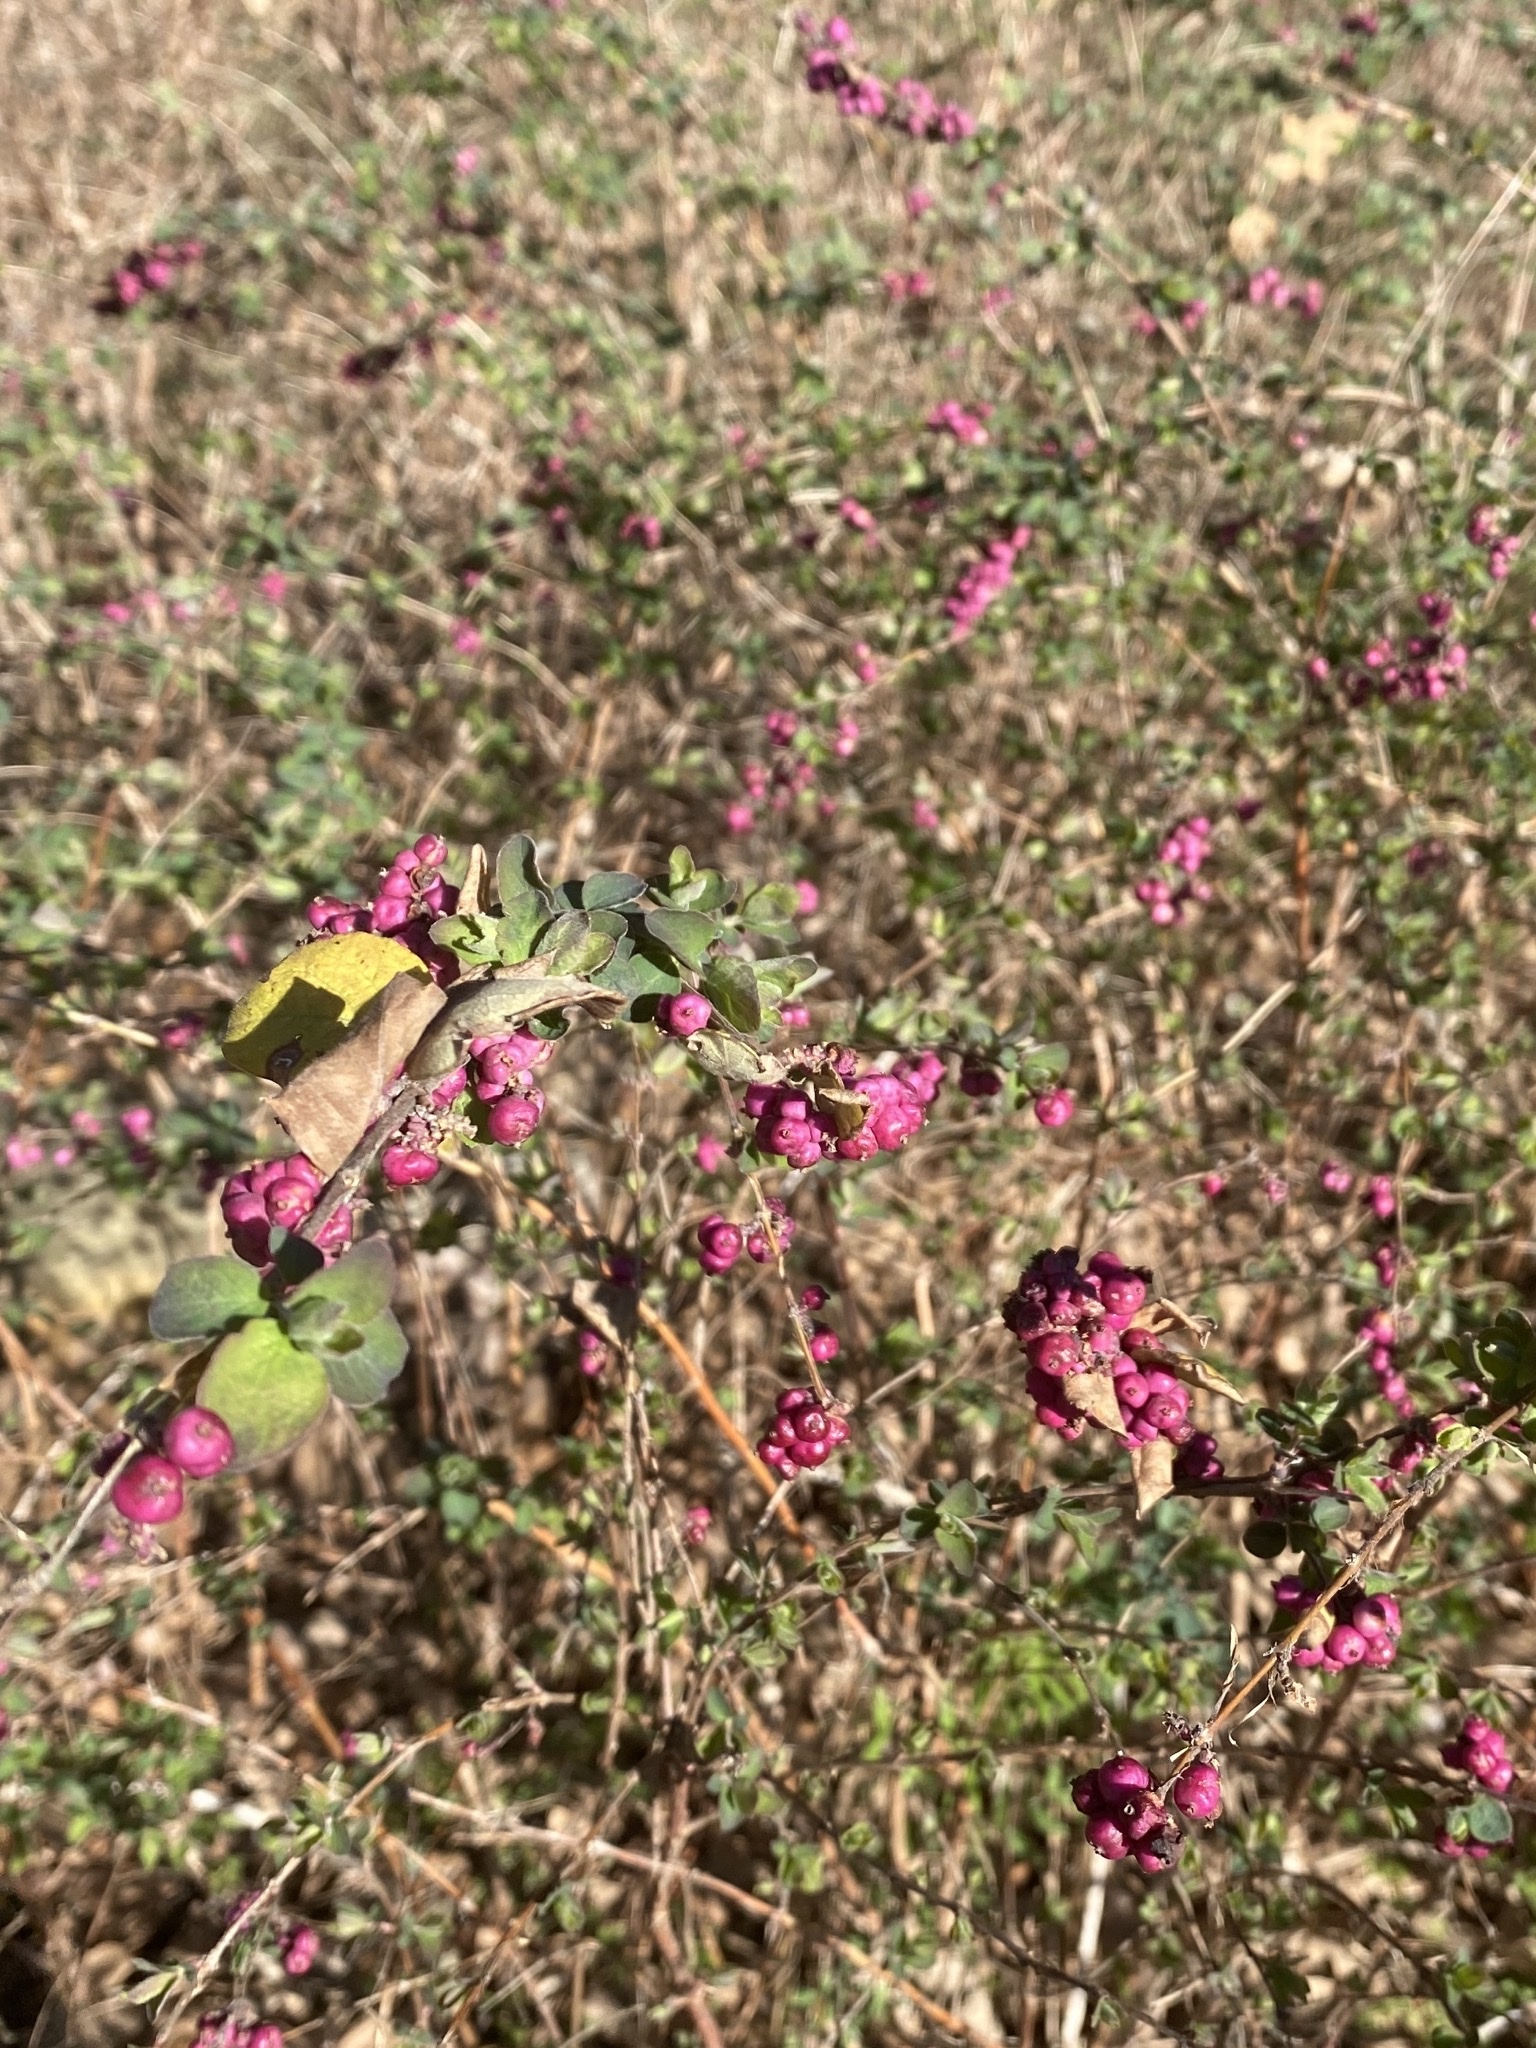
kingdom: Plantae
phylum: Tracheophyta
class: Magnoliopsida
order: Dipsacales
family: Caprifoliaceae
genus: Symphoricarpos
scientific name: Symphoricarpos orbiculatus
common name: Coralberry
